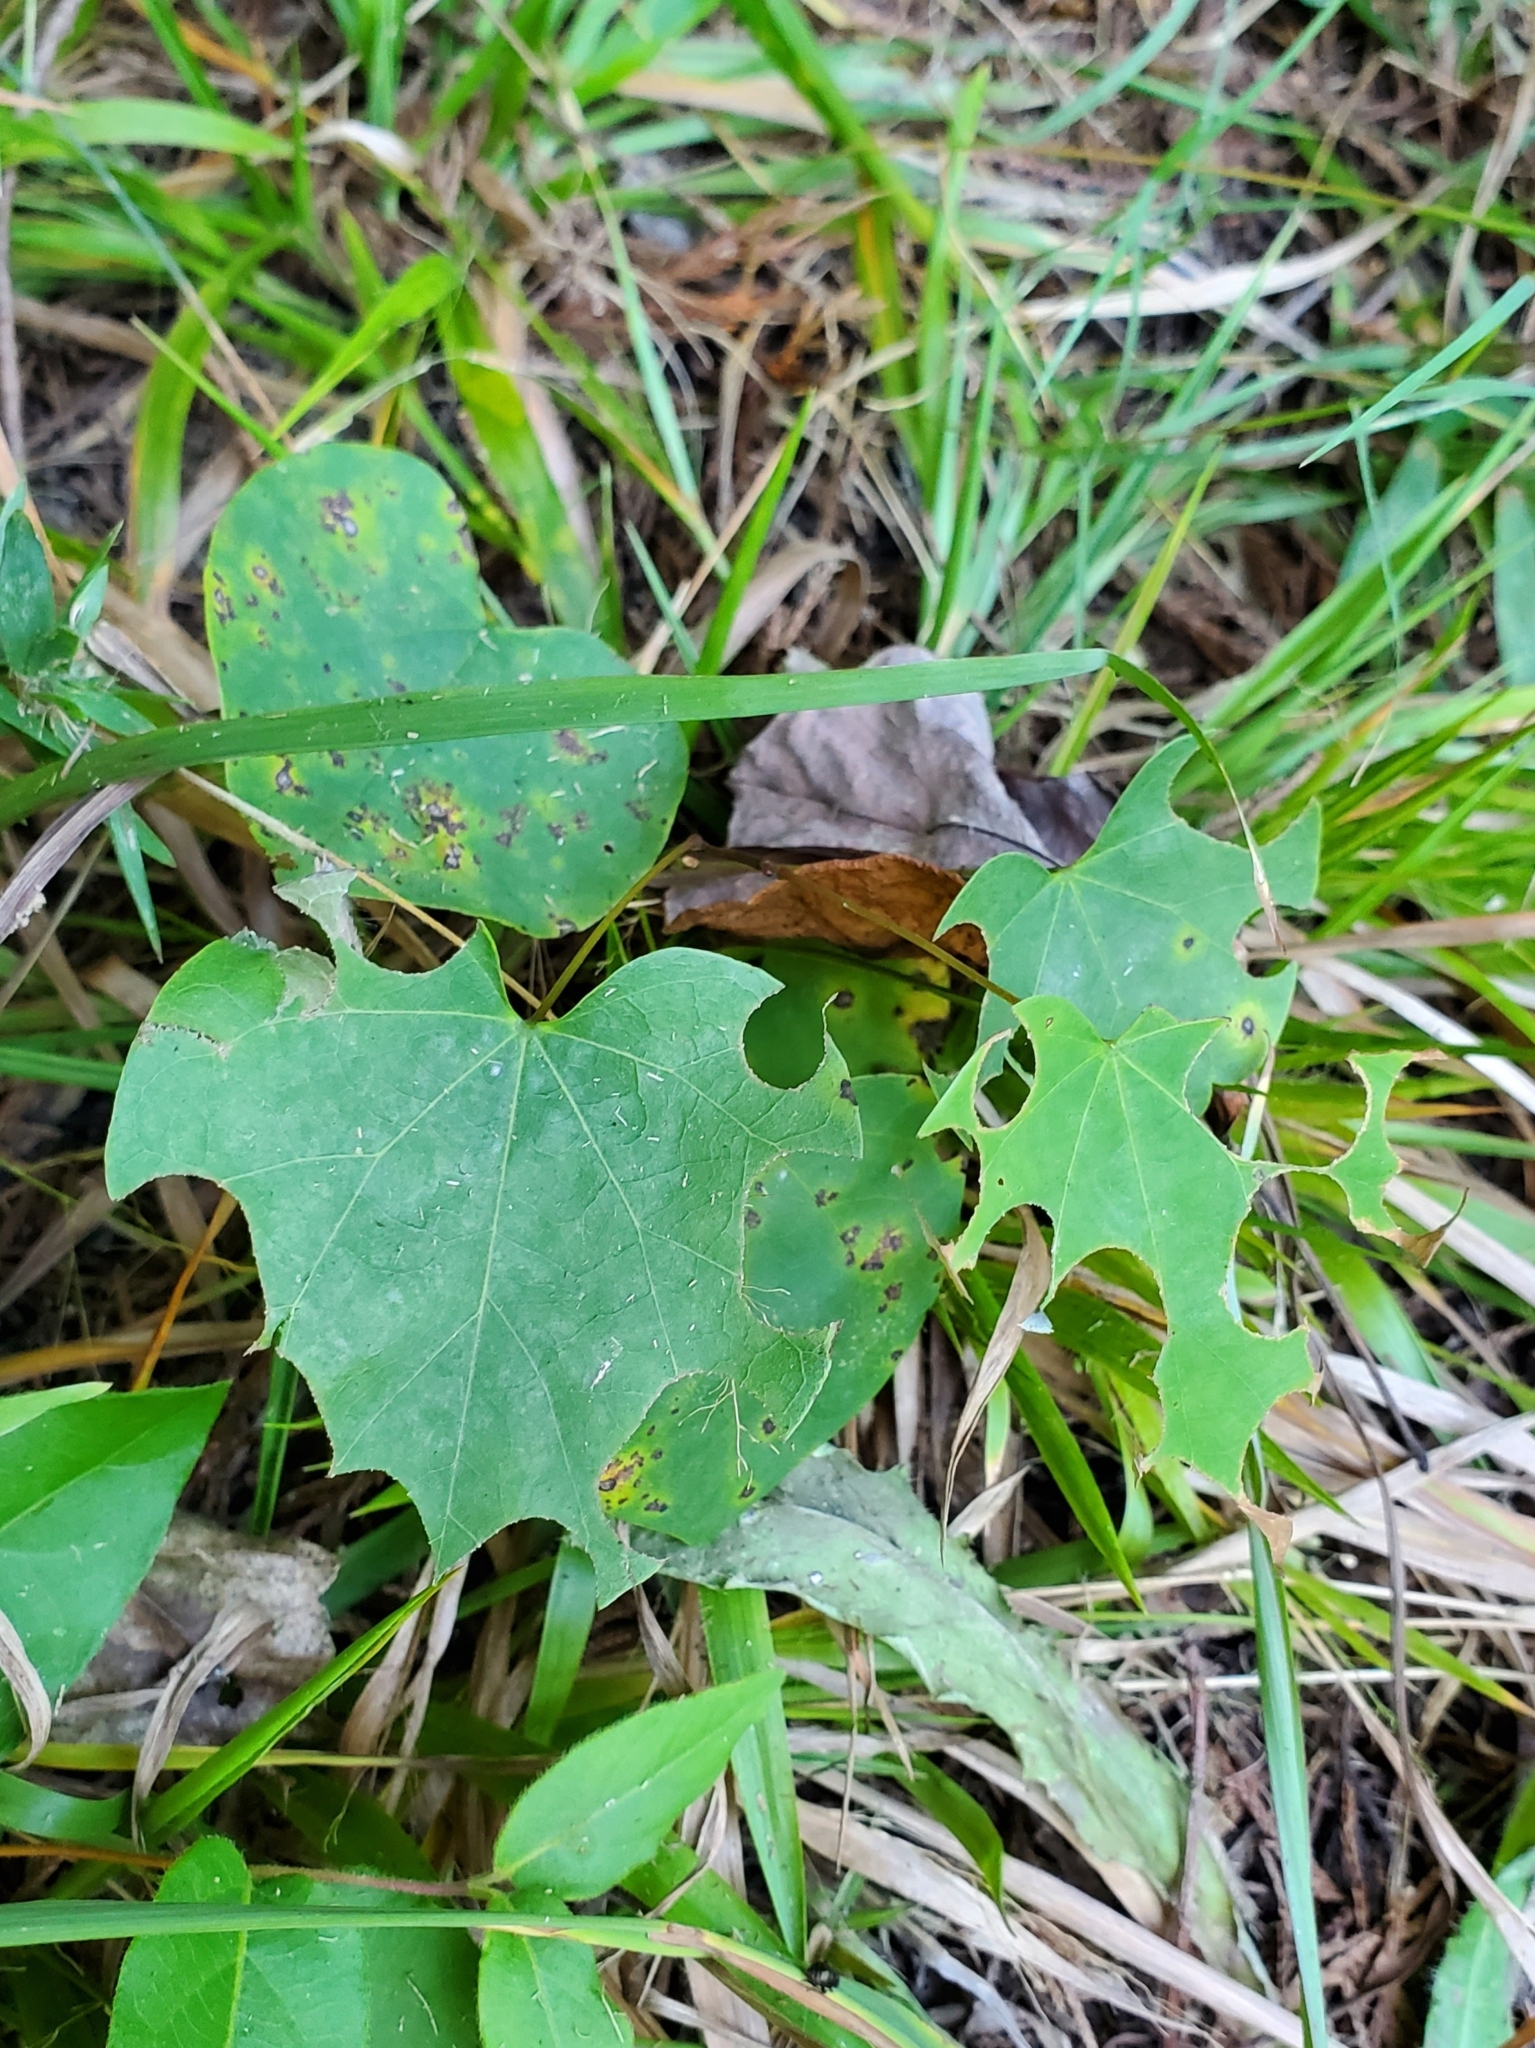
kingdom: Plantae
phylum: Tracheophyta
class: Magnoliopsida
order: Fabales
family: Fabaceae
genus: Cercis
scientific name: Cercis canadensis
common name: Eastern redbud
